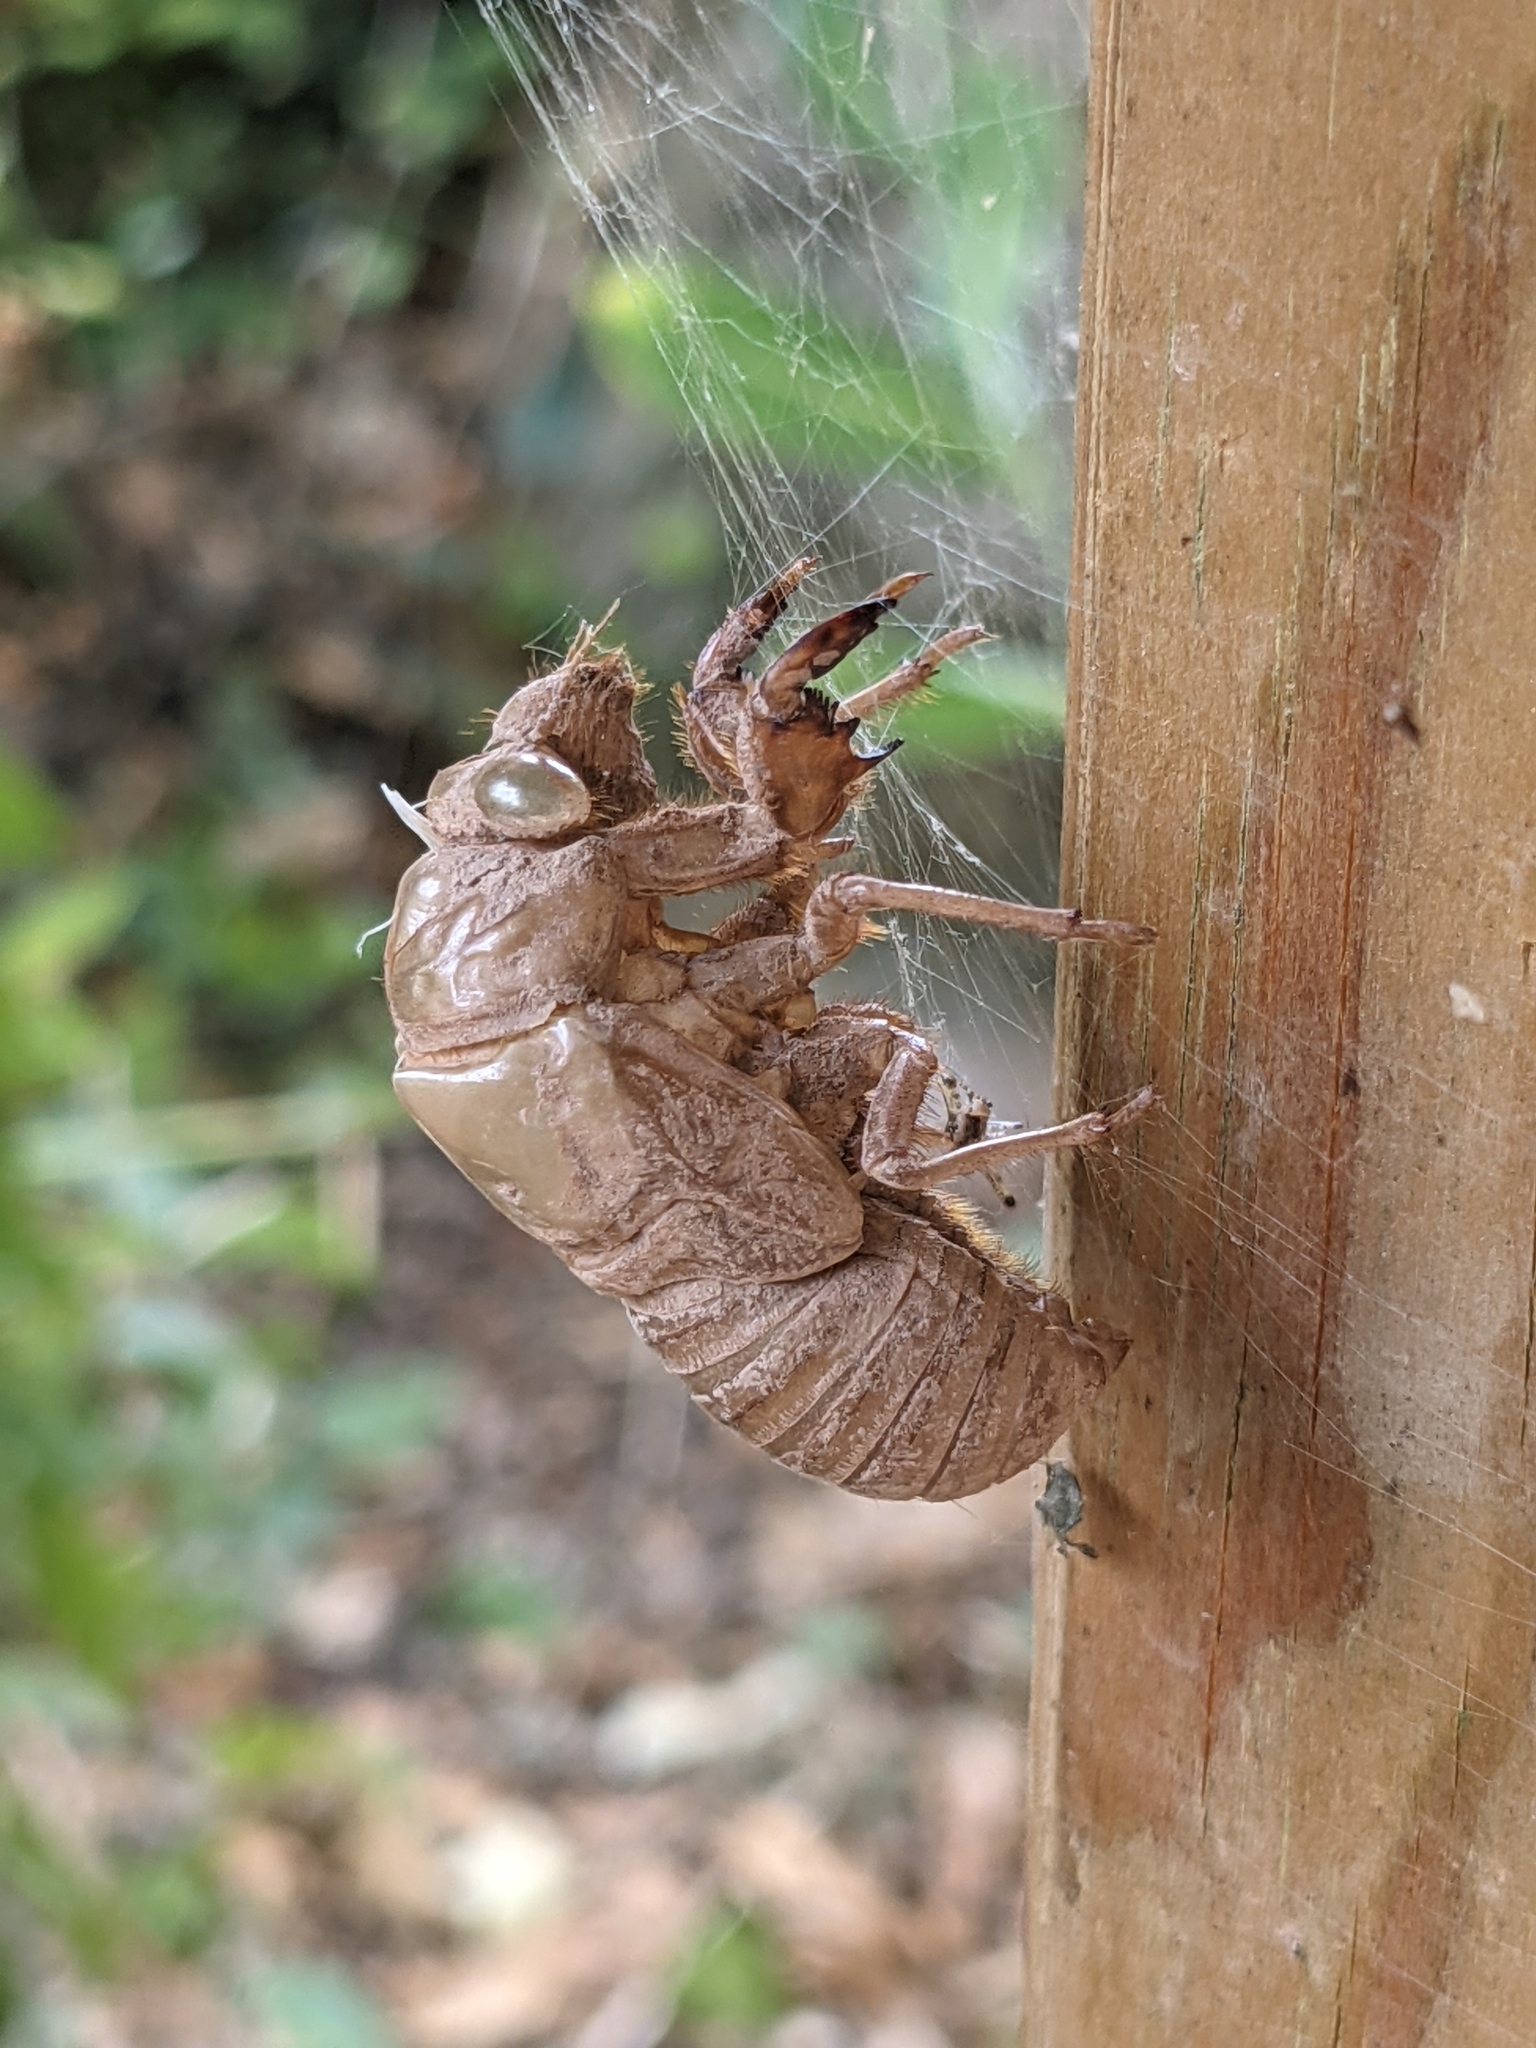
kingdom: Animalia
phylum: Arthropoda
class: Insecta
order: Hemiptera
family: Cicadidae
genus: Lyristes
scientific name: Lyristes plebejus
